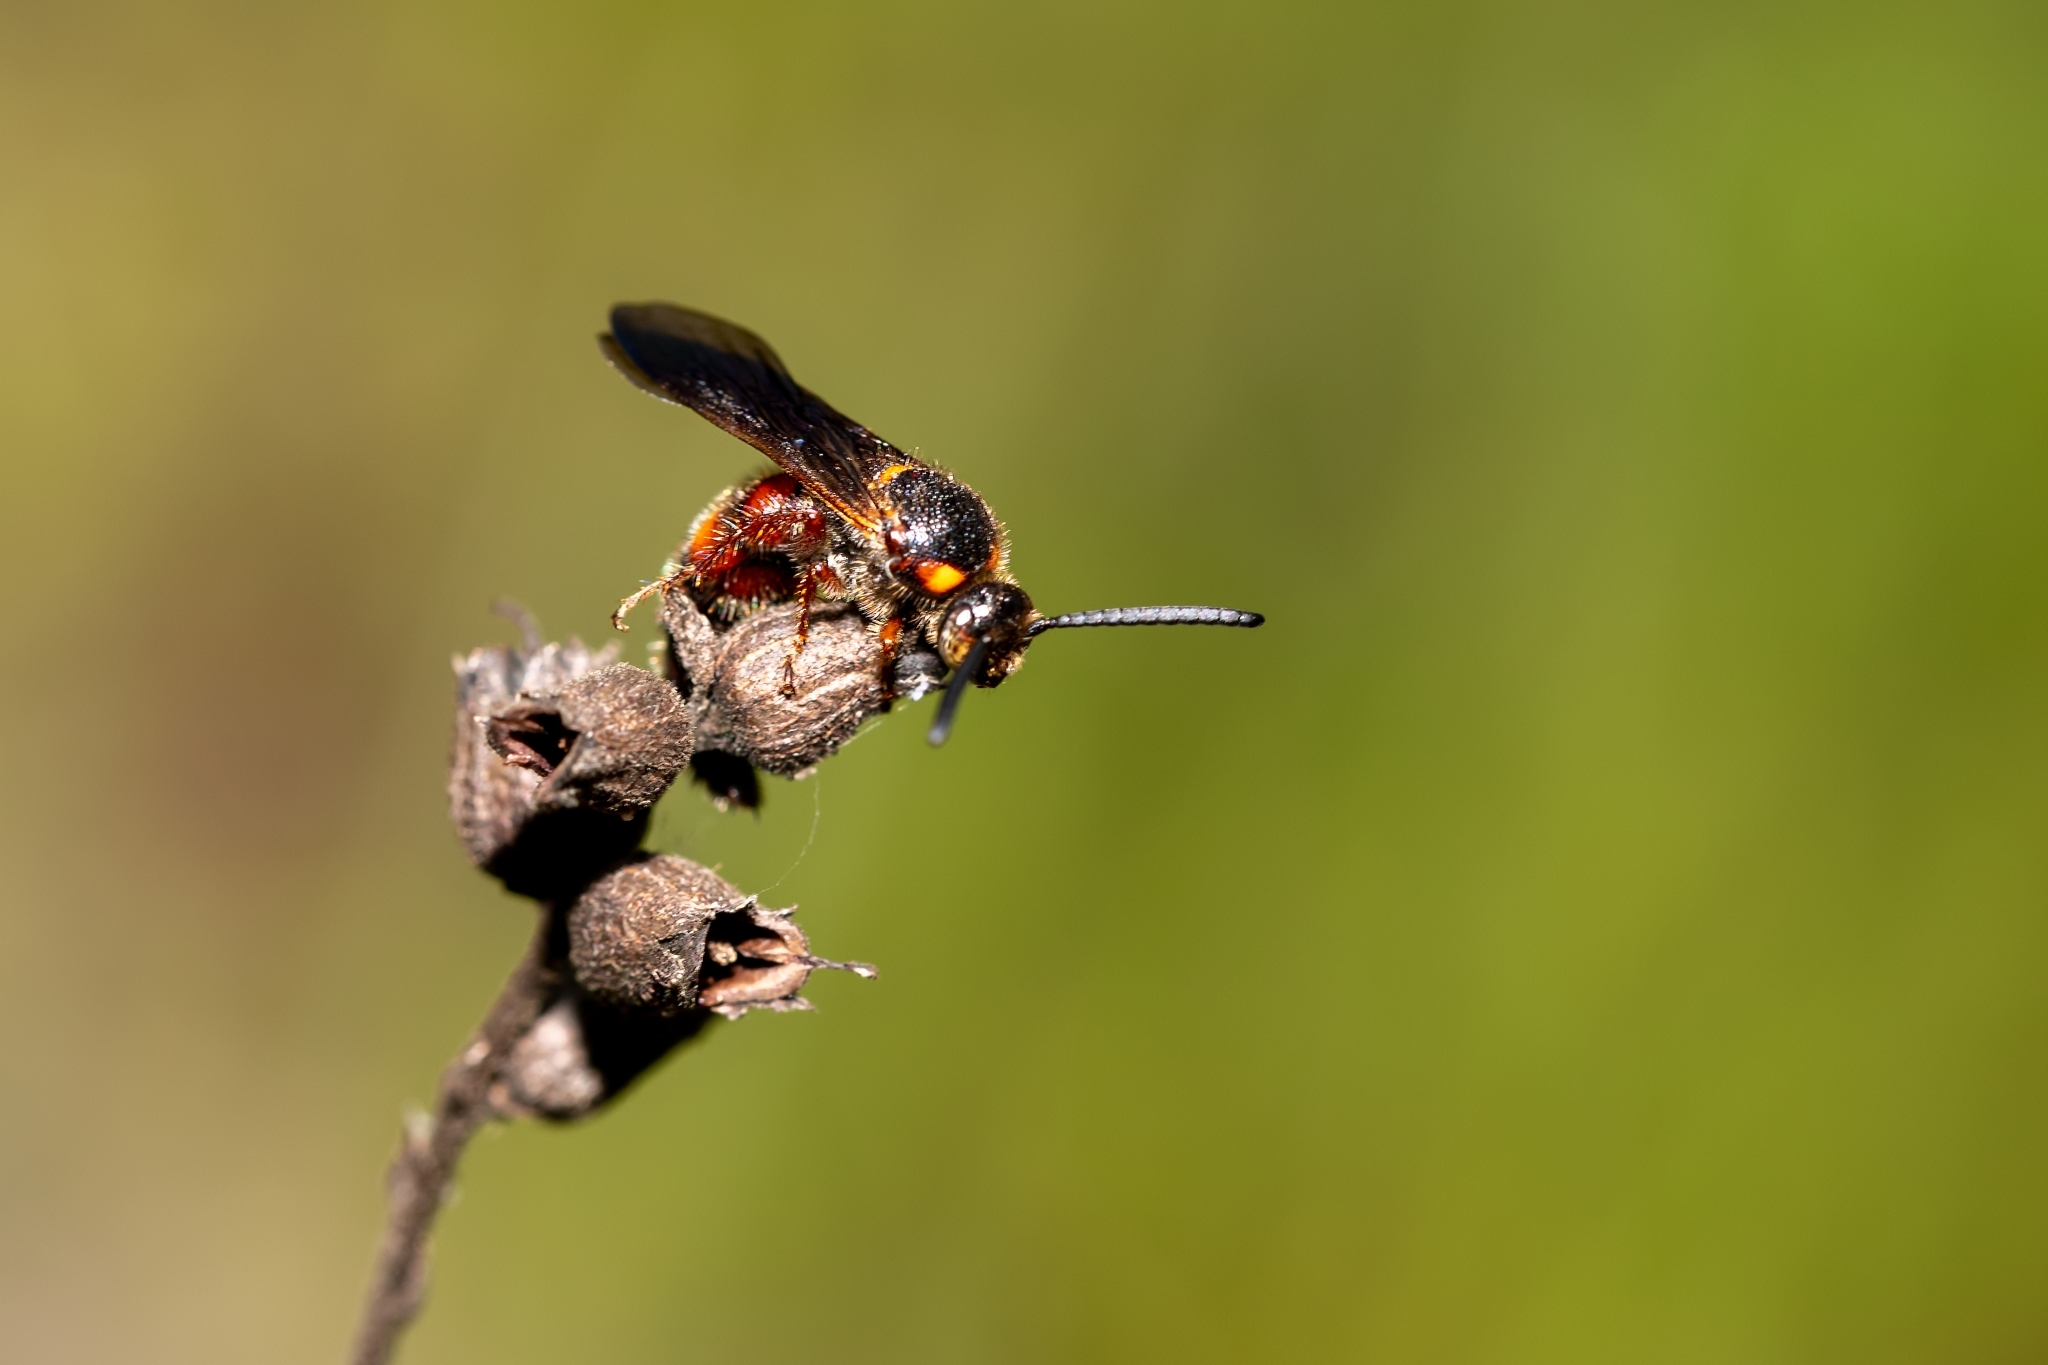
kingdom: Animalia
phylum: Arthropoda
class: Insecta
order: Hymenoptera
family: Scoliidae
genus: Scolia
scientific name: Scolia nobilitata
